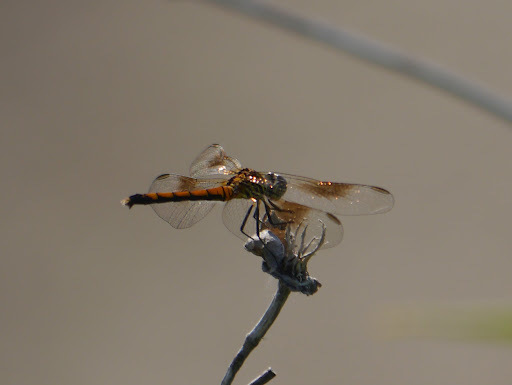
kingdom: Animalia
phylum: Arthropoda
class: Insecta
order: Odonata
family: Libellulidae
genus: Erythrodiplax
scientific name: Erythrodiplax berenice
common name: Seaside dragonlet
